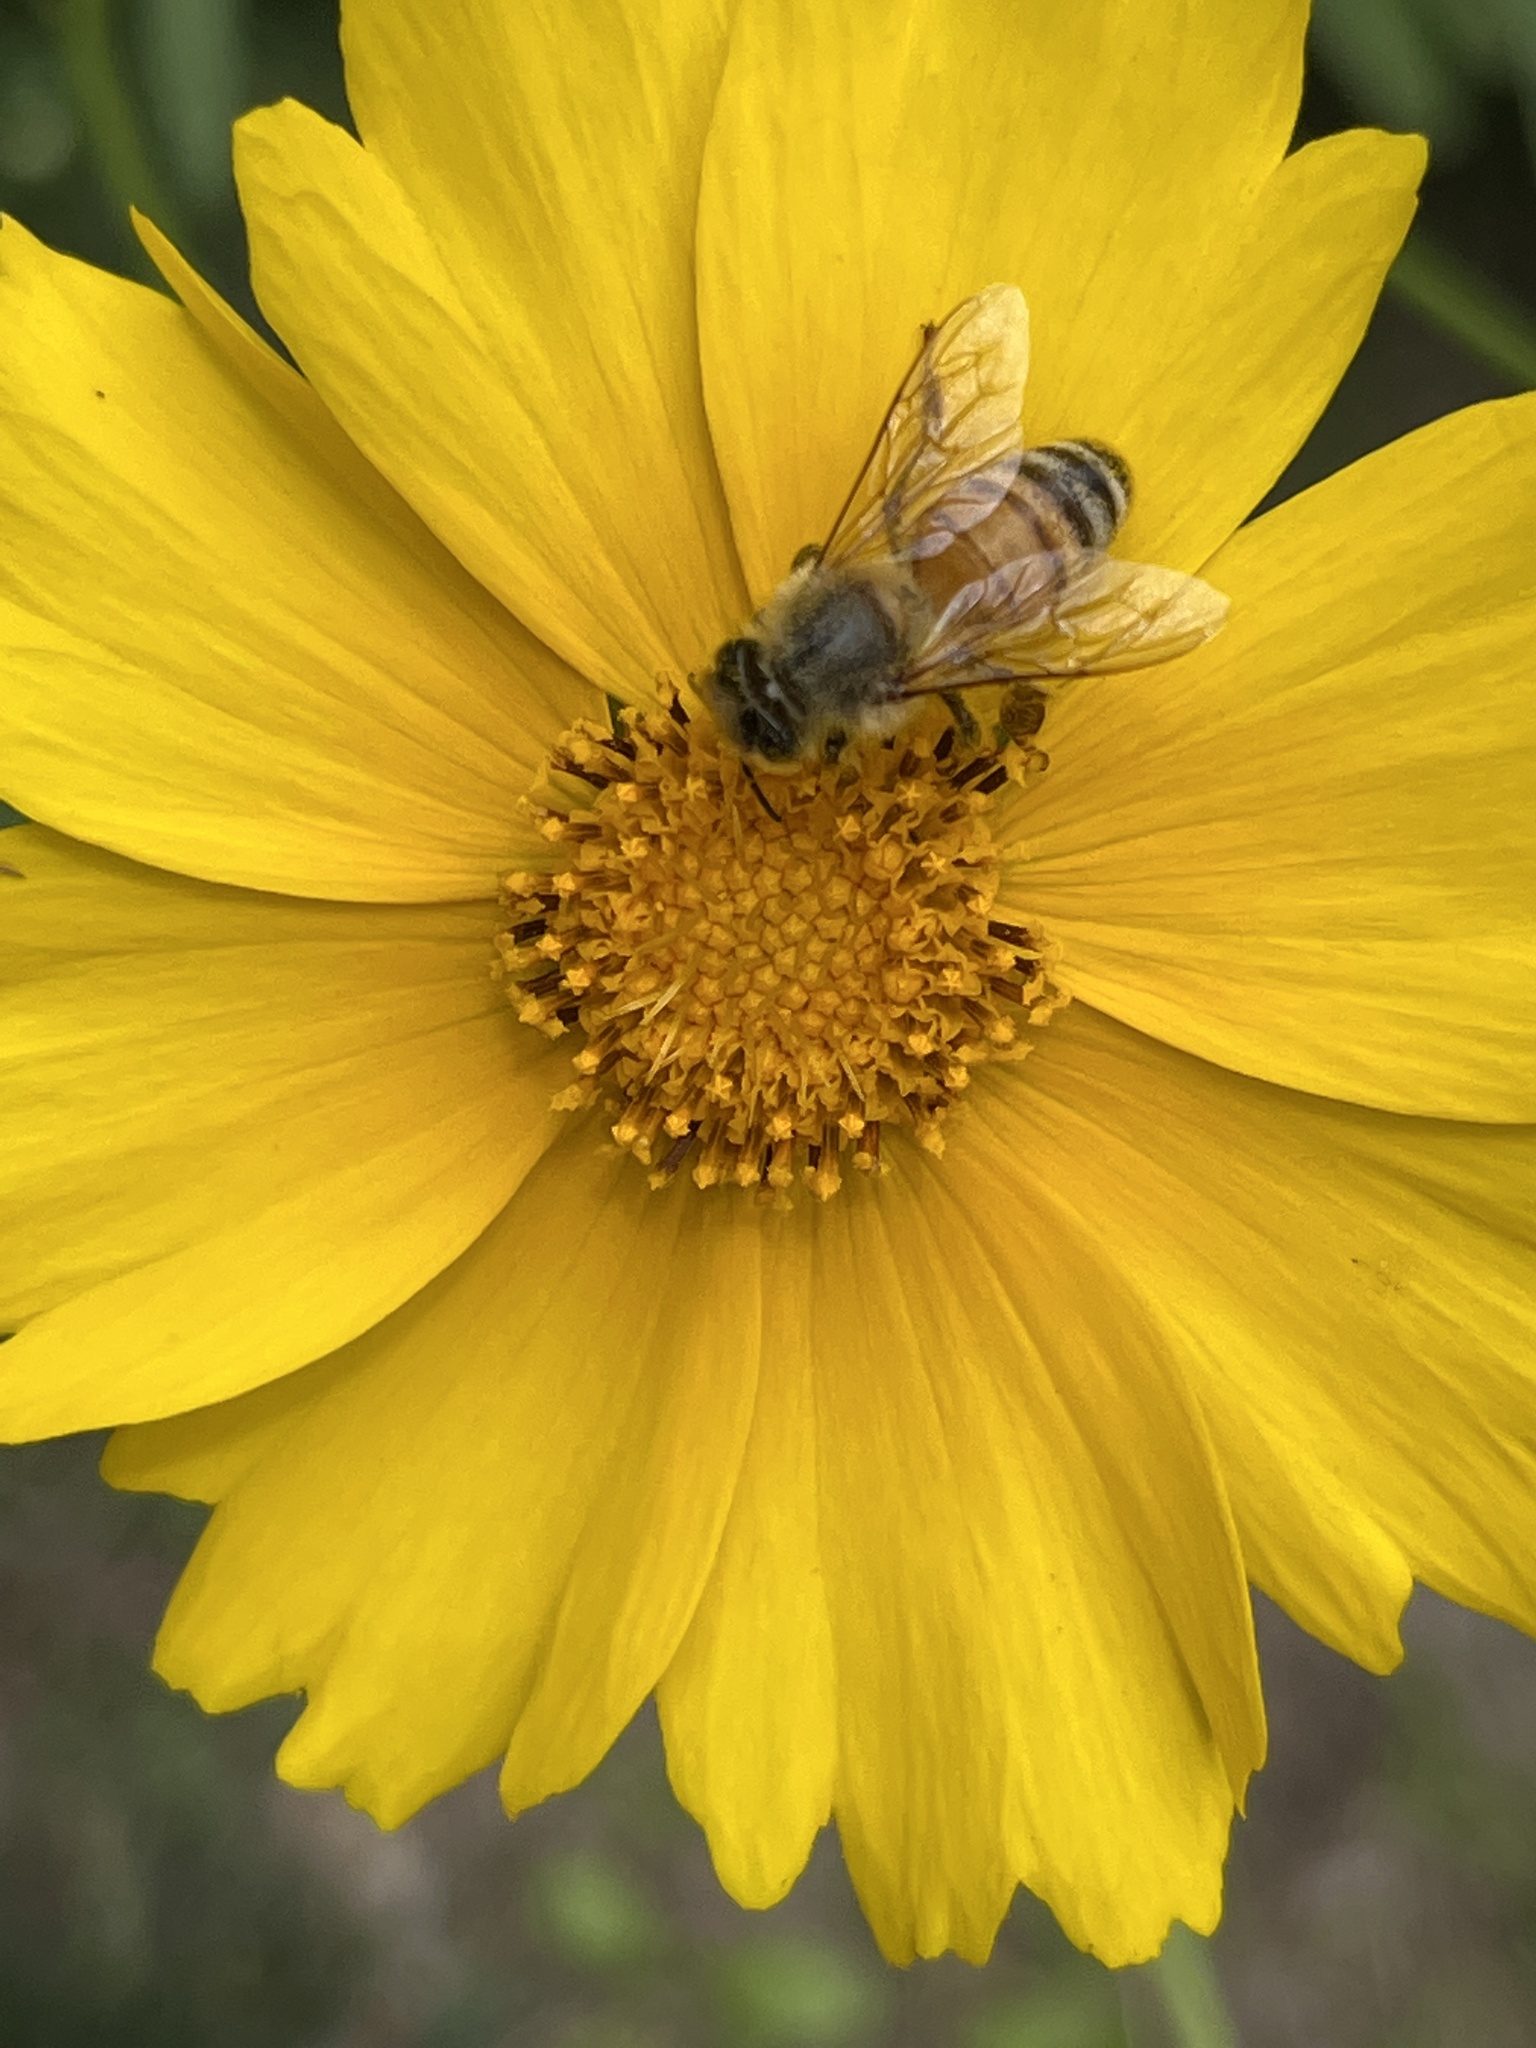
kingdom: Animalia
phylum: Arthropoda
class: Insecta
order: Hymenoptera
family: Apidae
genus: Apis
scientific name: Apis mellifera
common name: Honey bee
